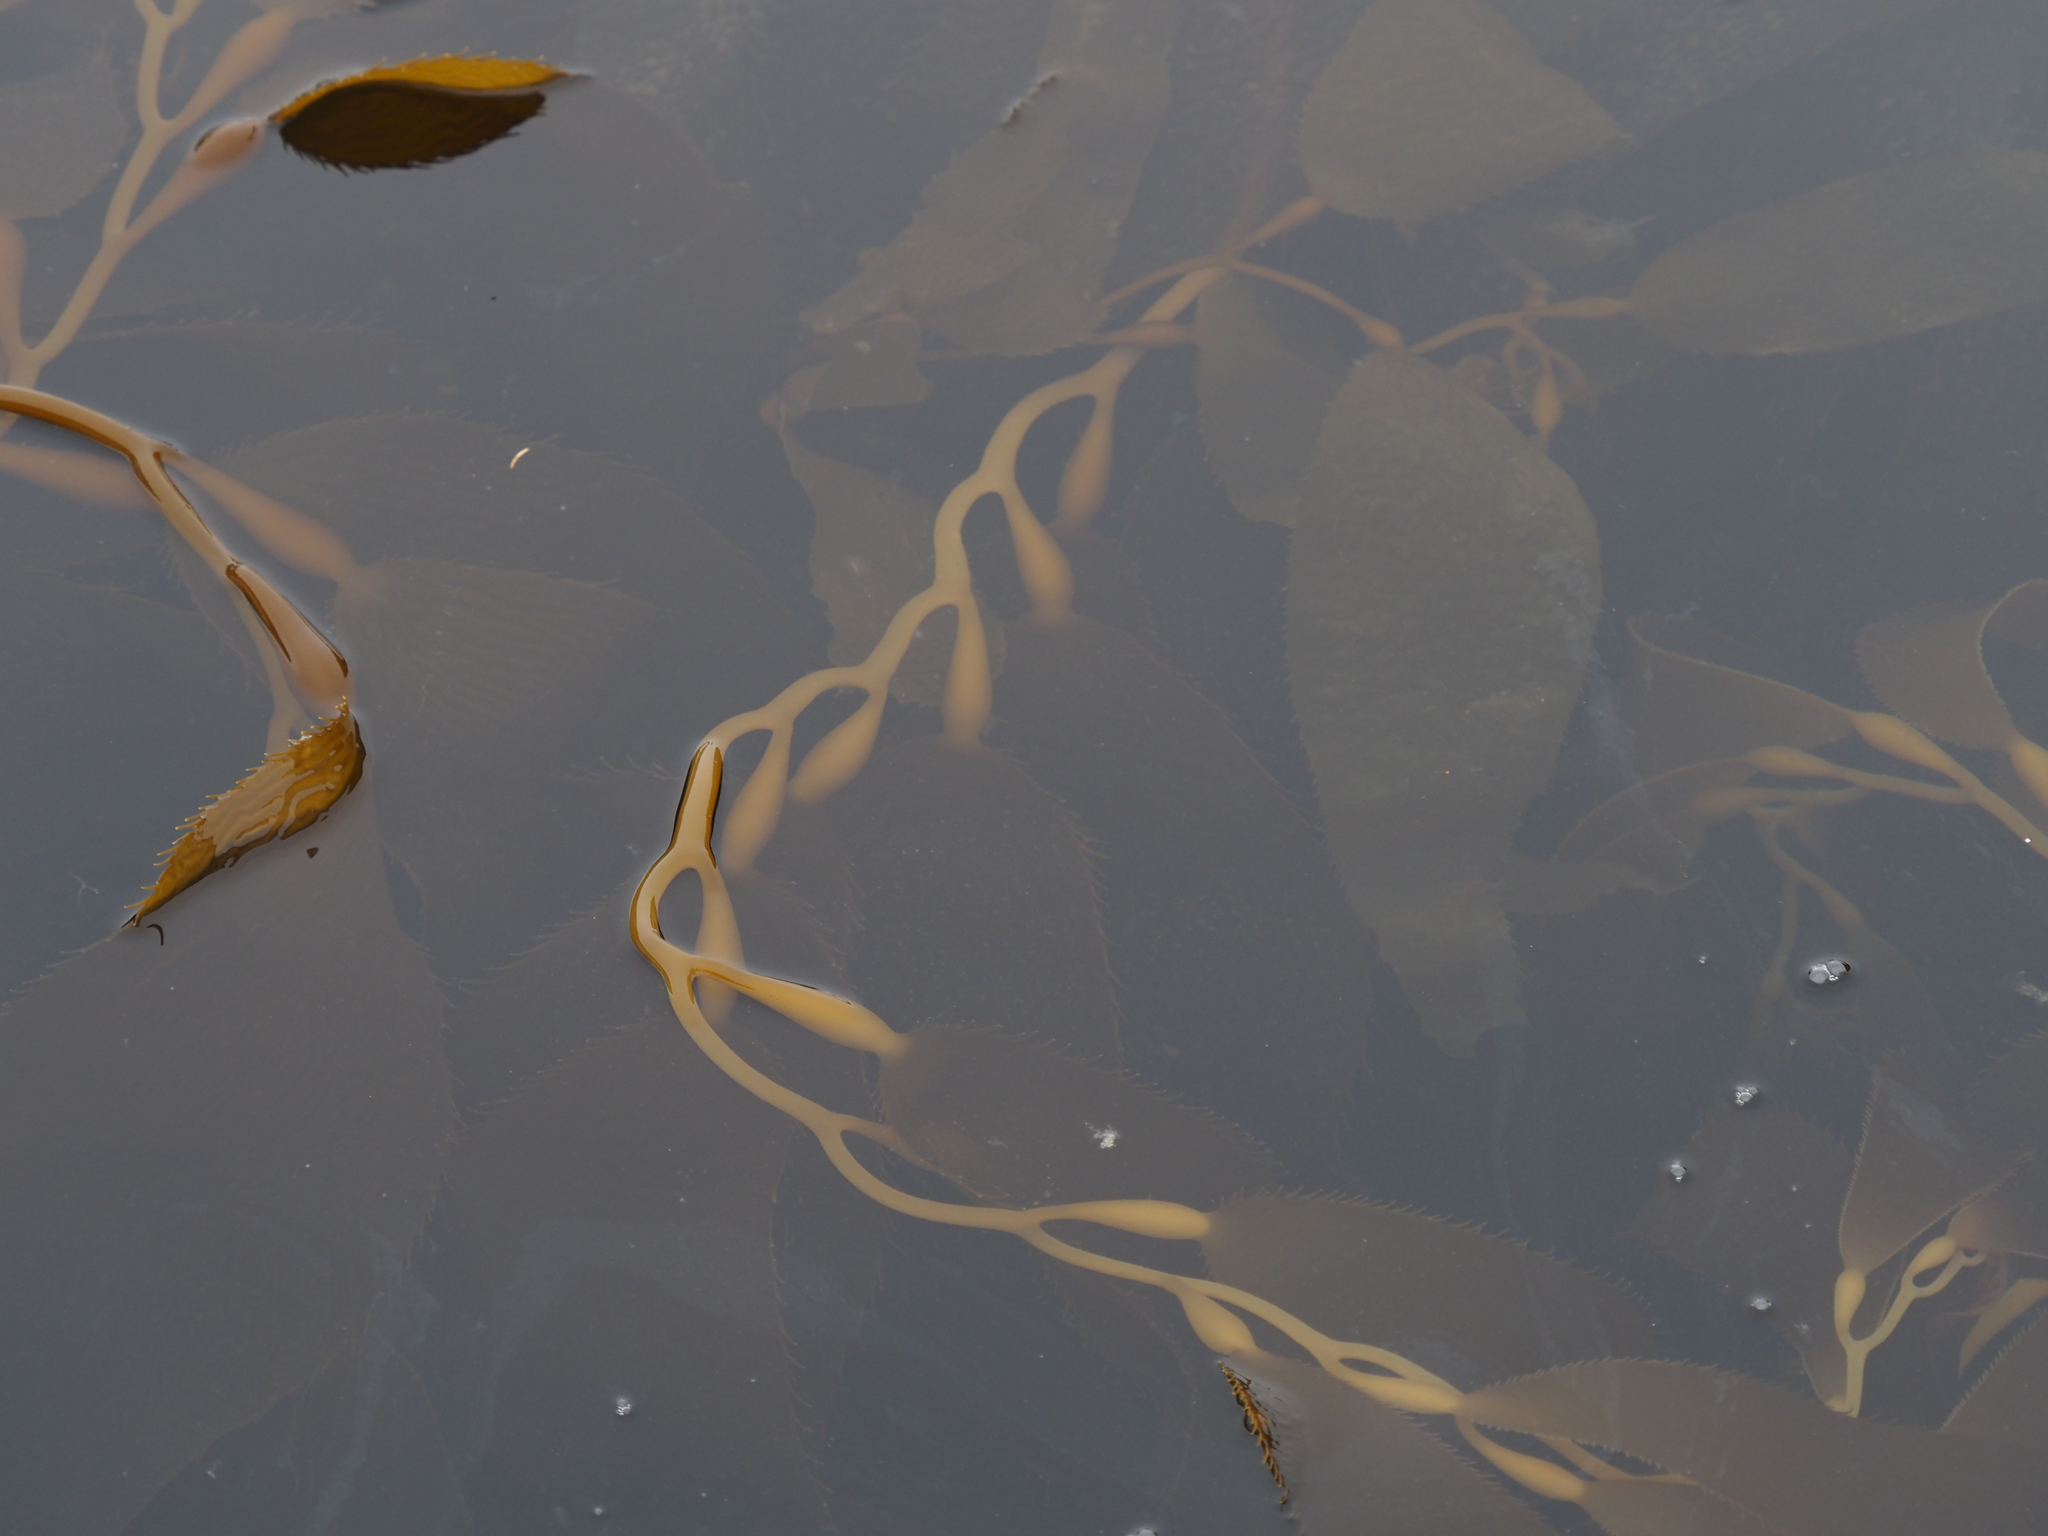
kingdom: Chromista
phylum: Ochrophyta
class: Phaeophyceae
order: Laminariales
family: Laminariaceae
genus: Macrocystis
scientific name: Macrocystis pyrifera
